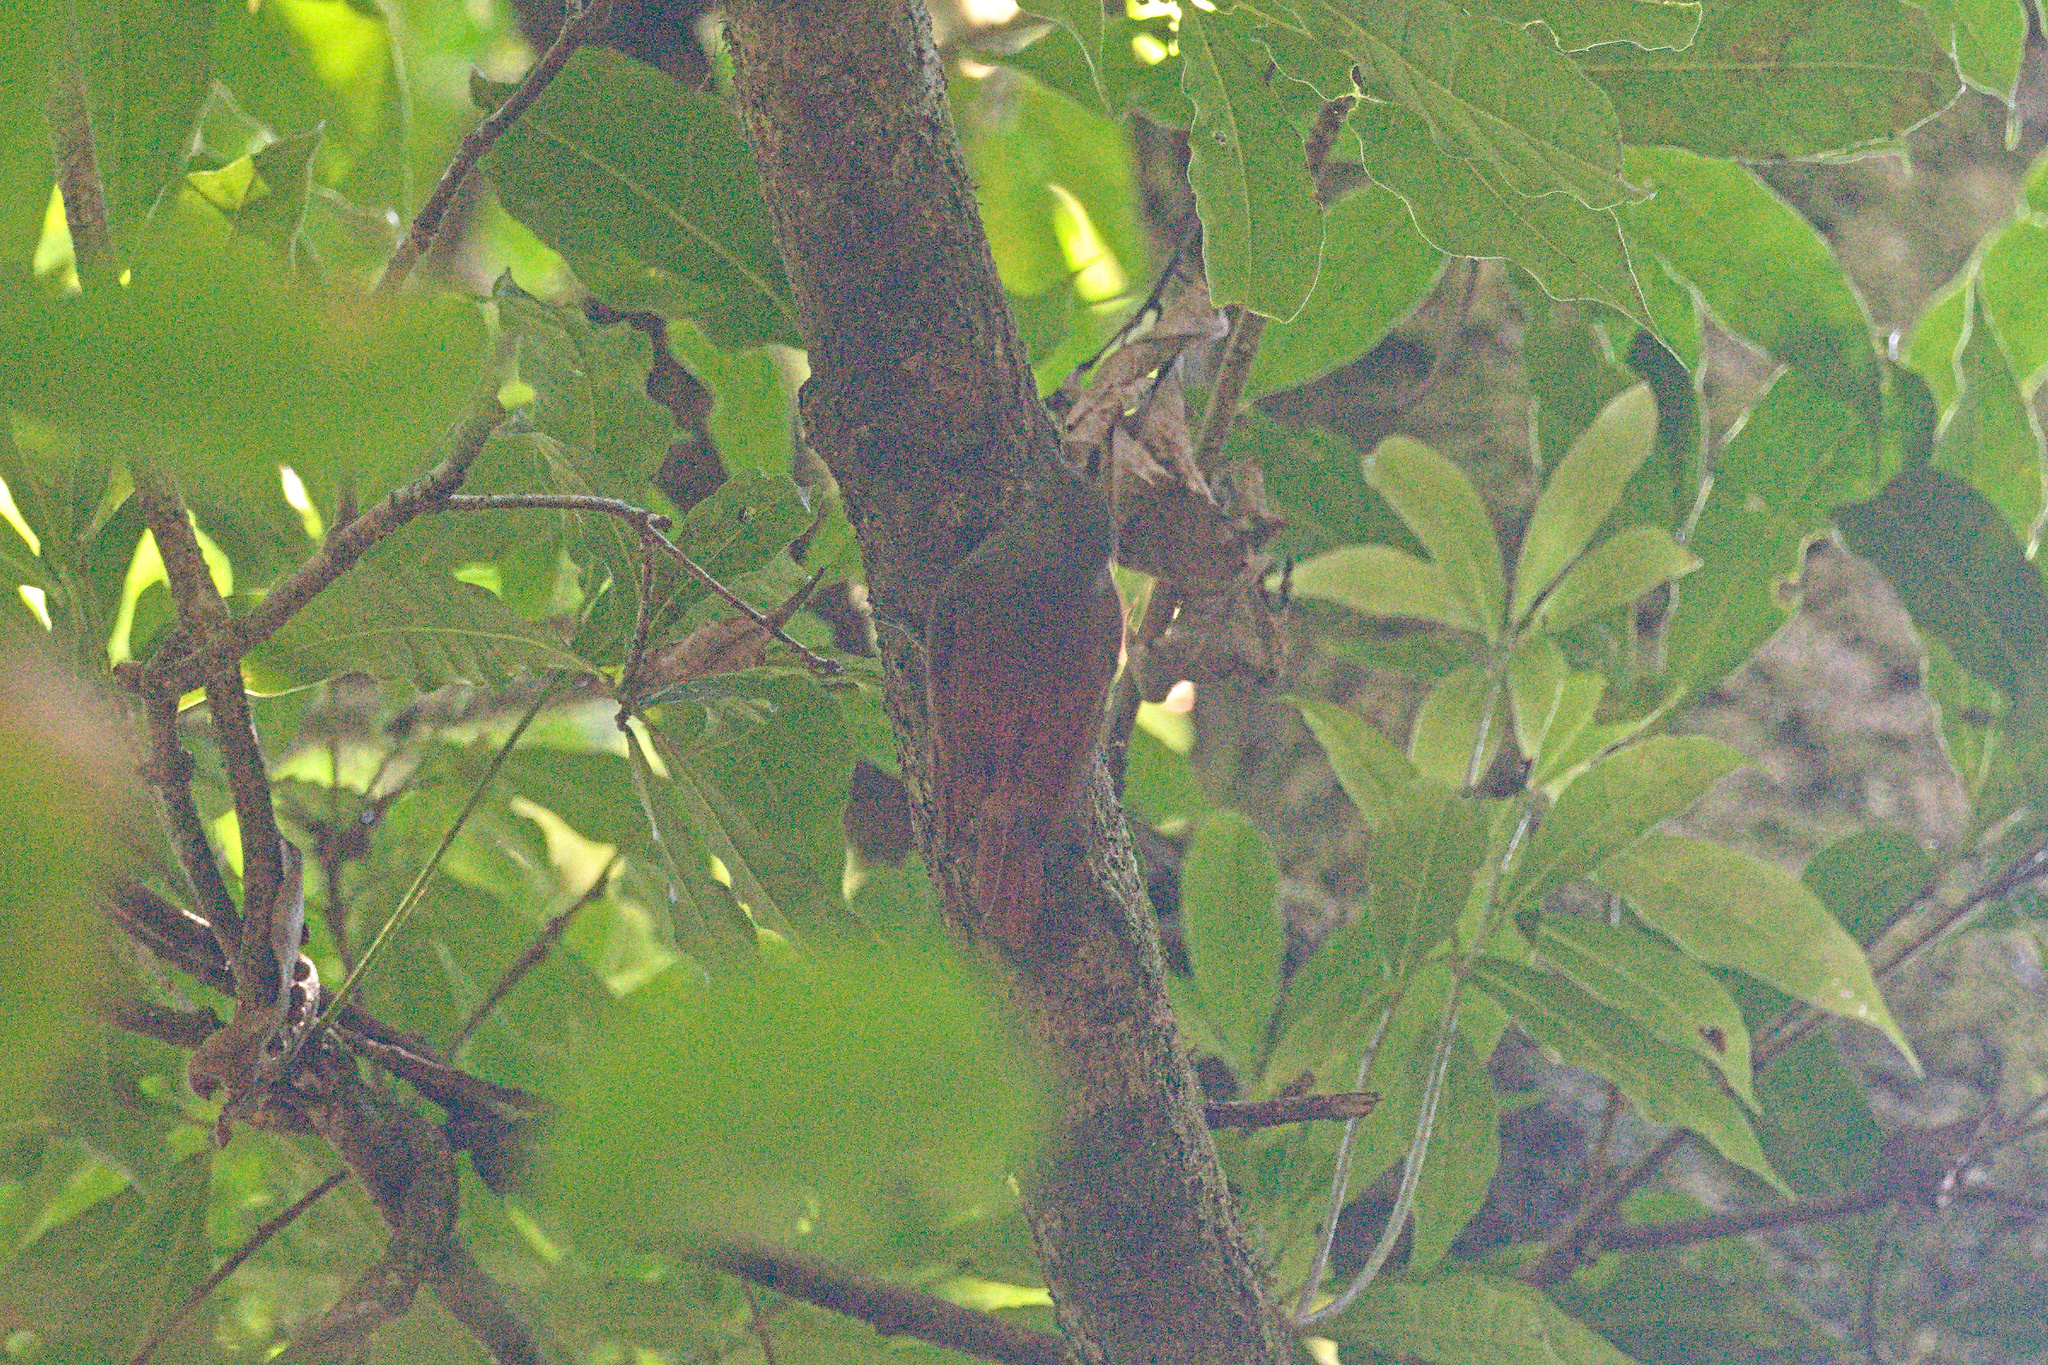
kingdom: Animalia
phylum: Chordata
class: Aves
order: Passeriformes
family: Furnariidae
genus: Sittasomus
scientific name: Sittasomus griseicapillus
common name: Olivaceous woodcreeper
